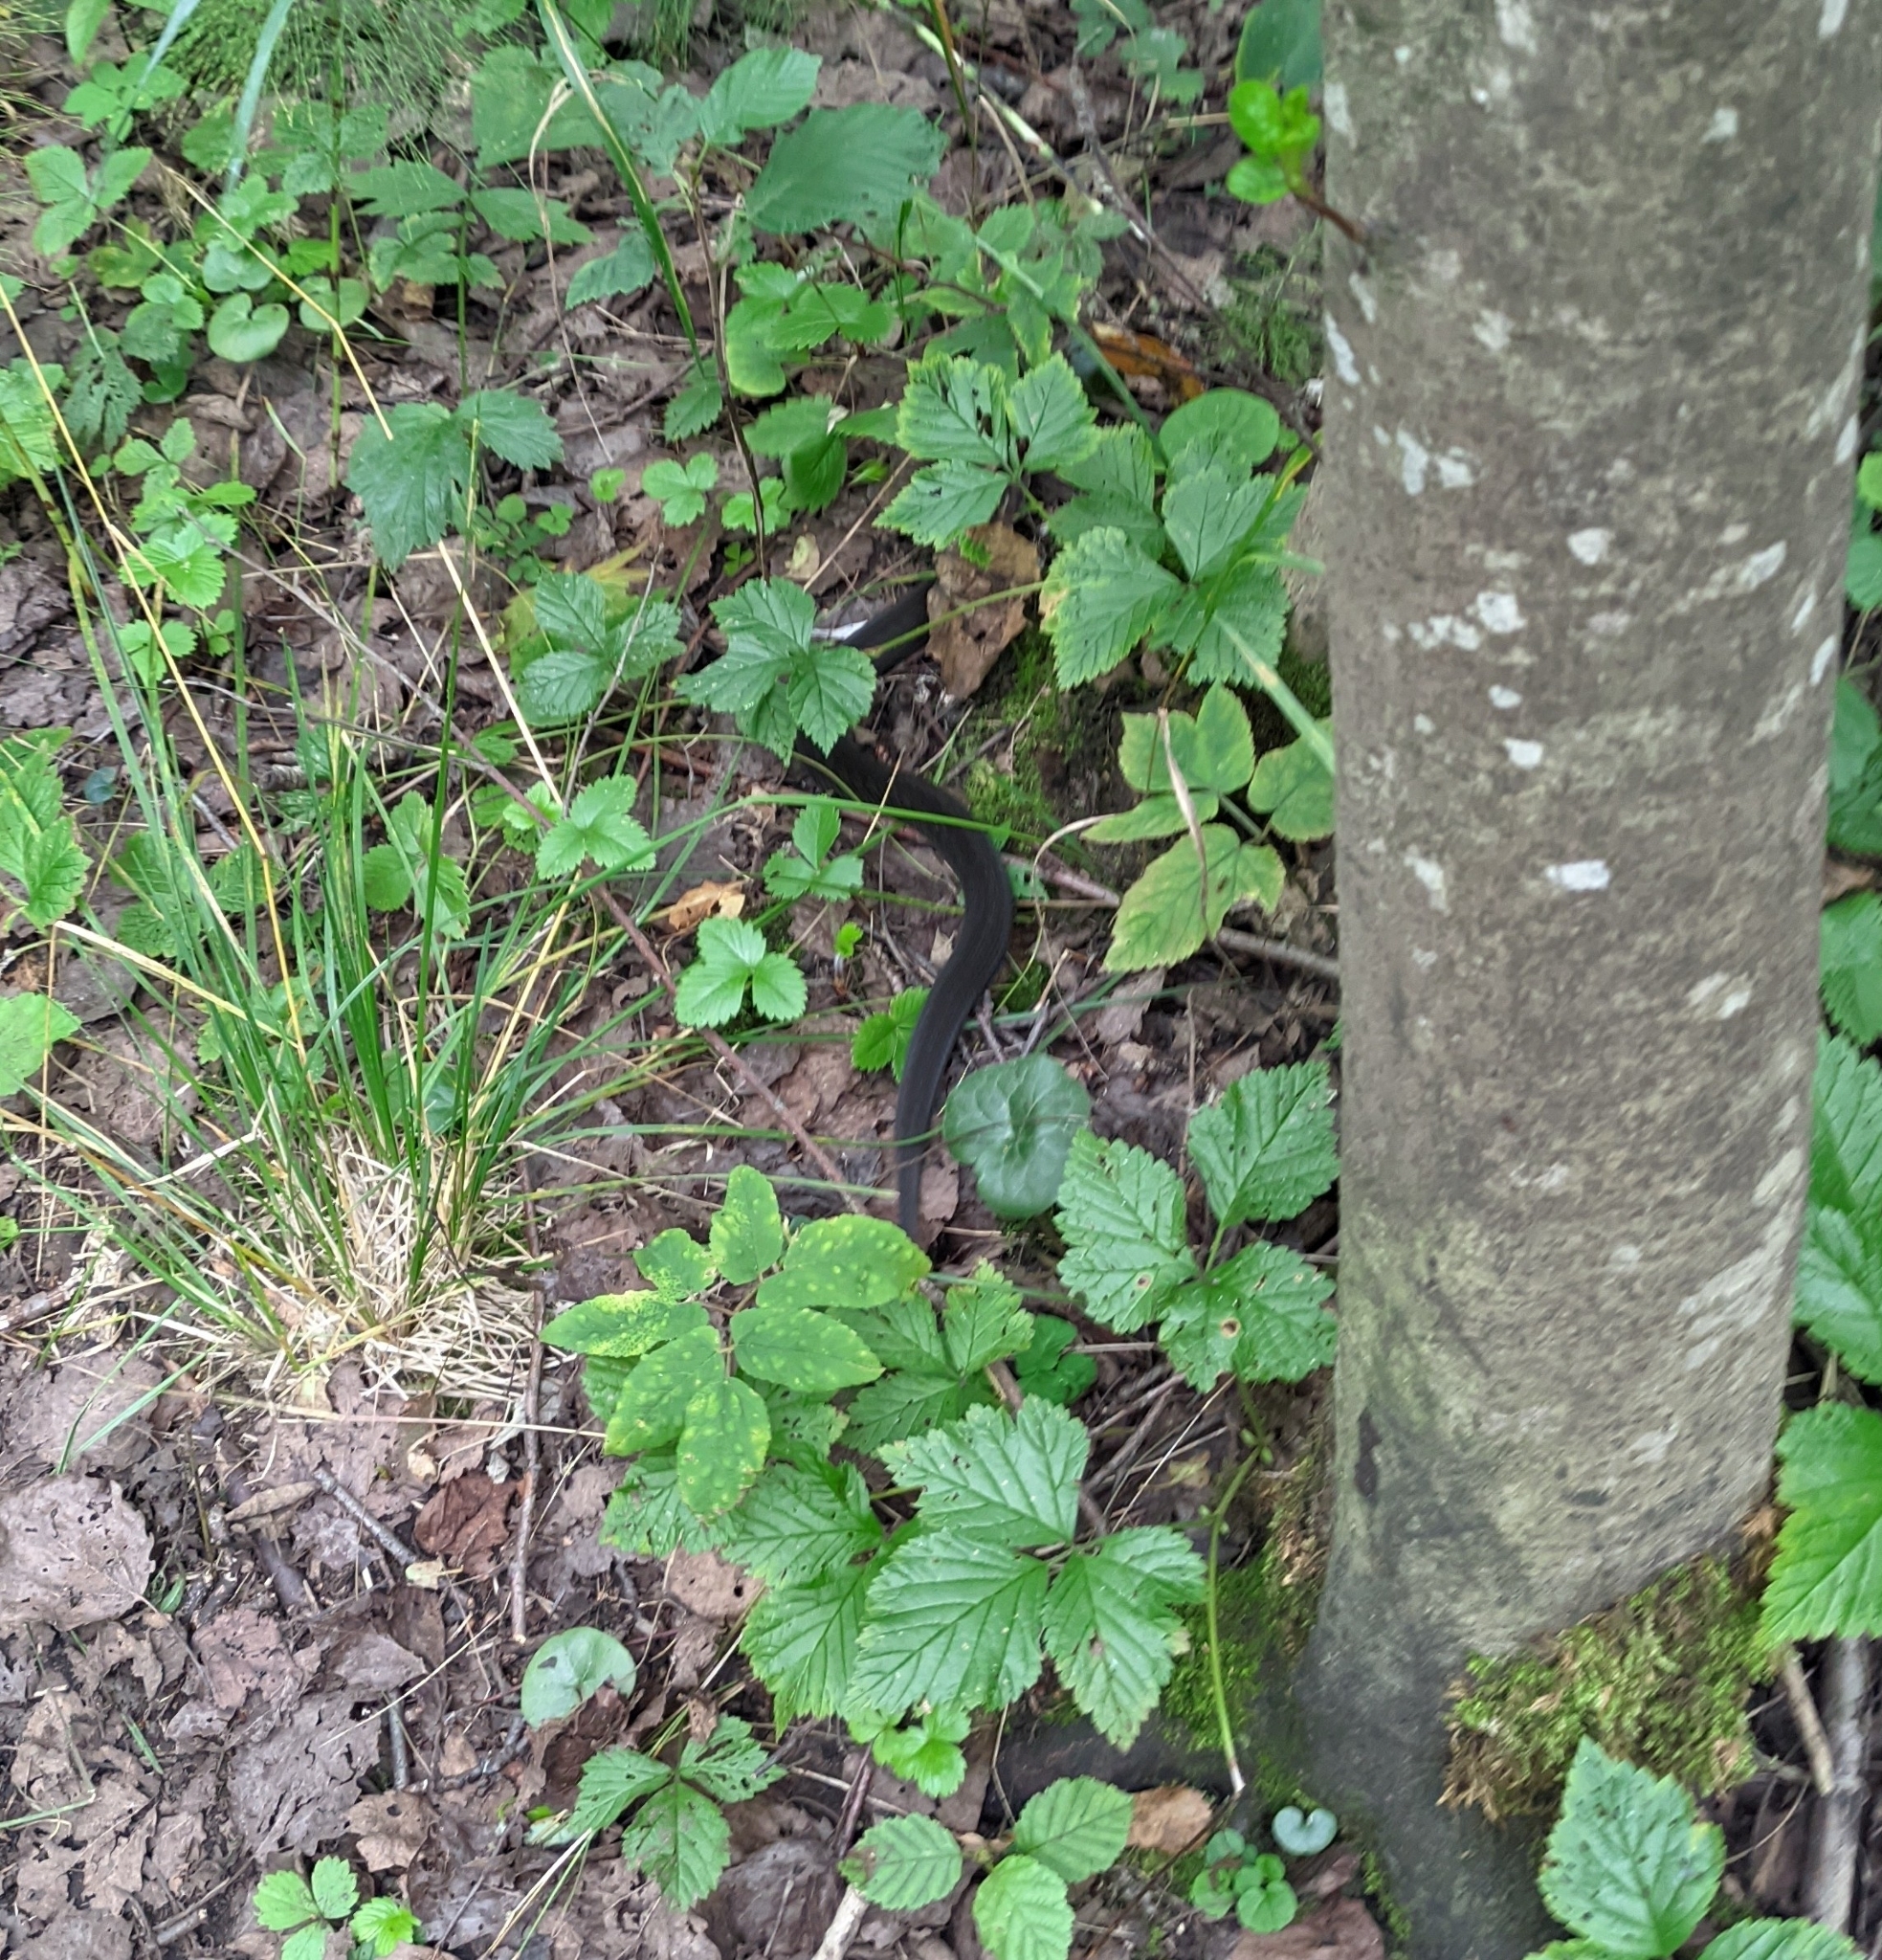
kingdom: Animalia
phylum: Chordata
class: Squamata
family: Viperidae
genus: Vipera
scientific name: Vipera berus
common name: Adder
